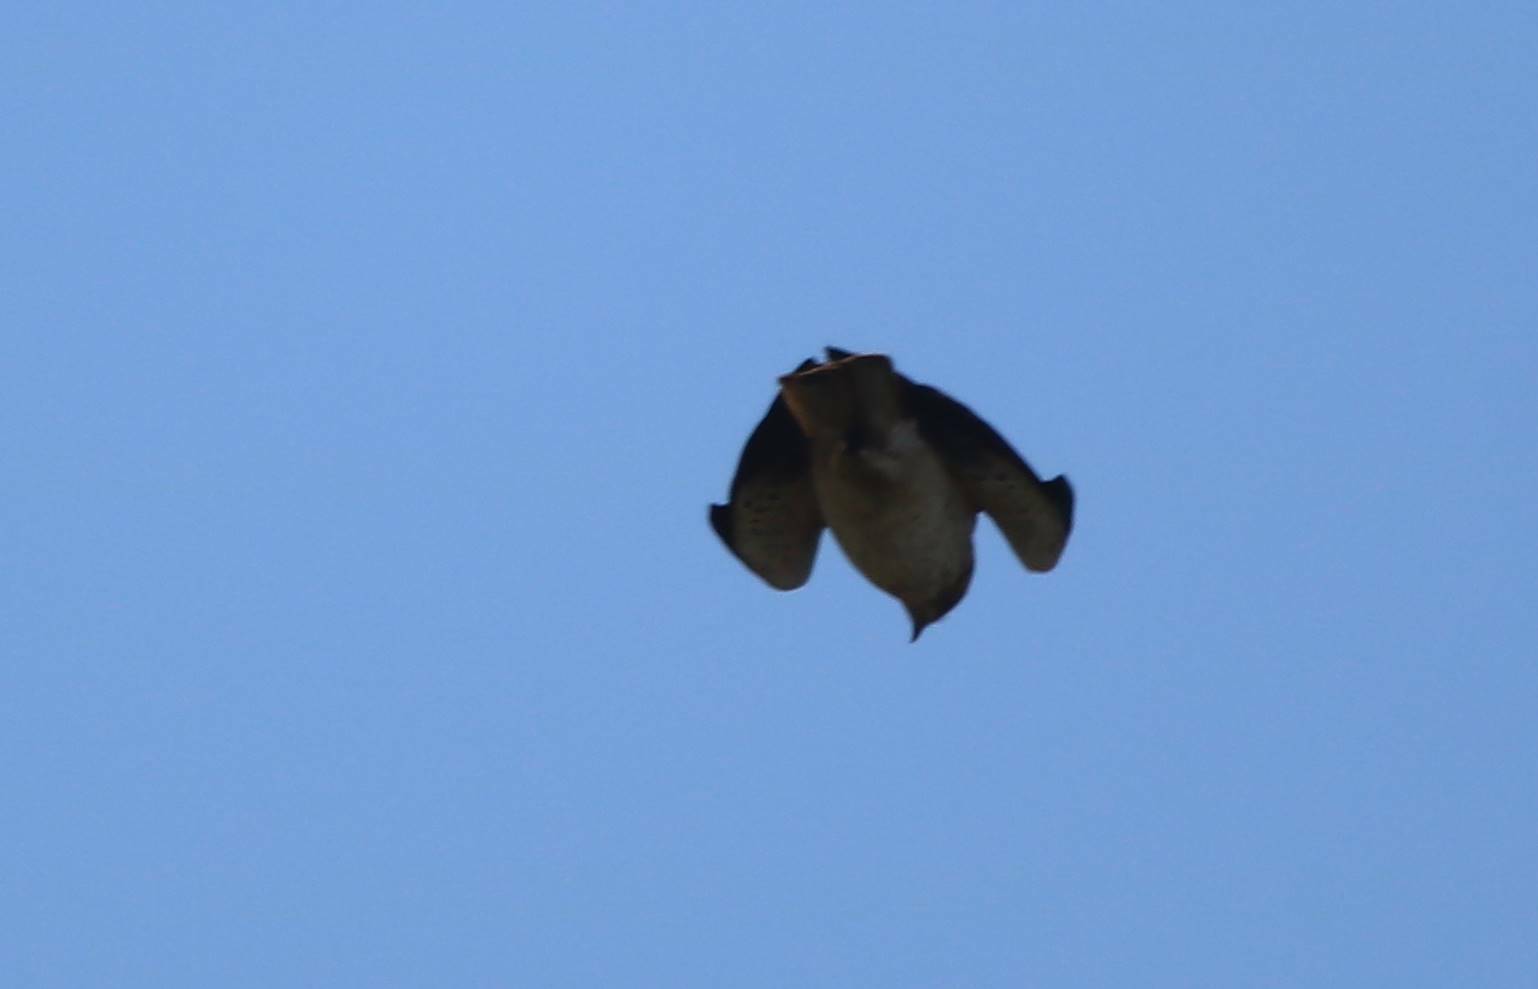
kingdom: Animalia
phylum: Chordata
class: Aves
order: Accipitriformes
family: Accipitridae
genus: Hieraaetus
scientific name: Hieraaetus pennatus
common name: Booted eagle
